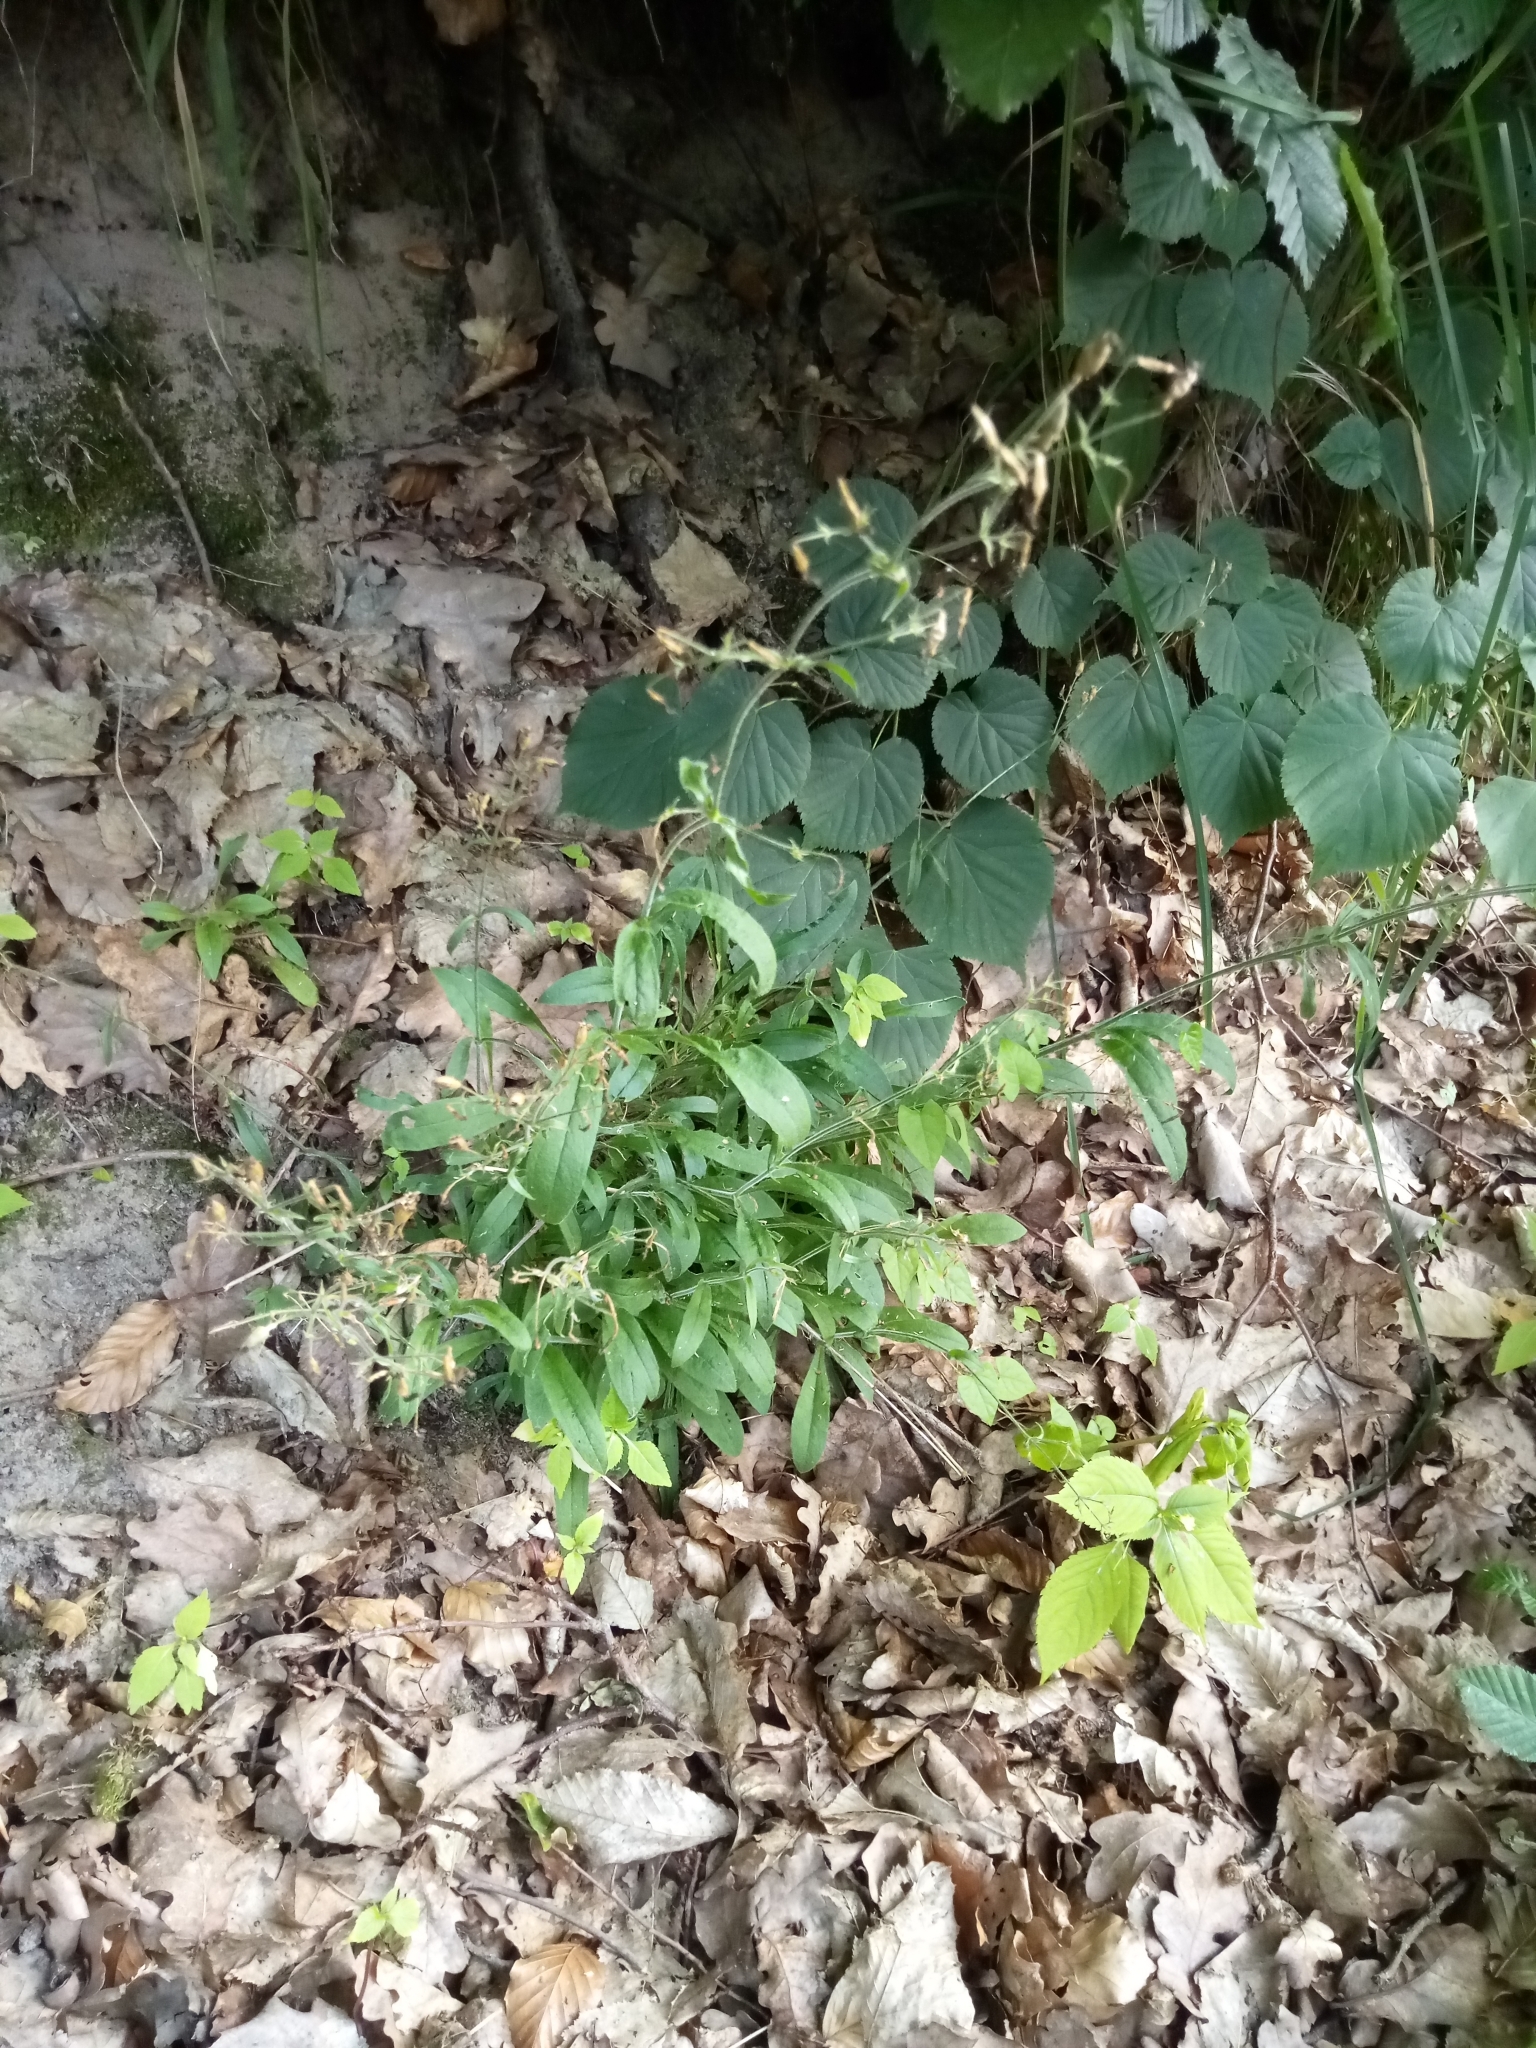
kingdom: Plantae
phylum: Tracheophyta
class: Magnoliopsida
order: Caryophyllales
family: Caryophyllaceae
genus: Silene
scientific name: Silene nutans
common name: Nottingham catchfly
